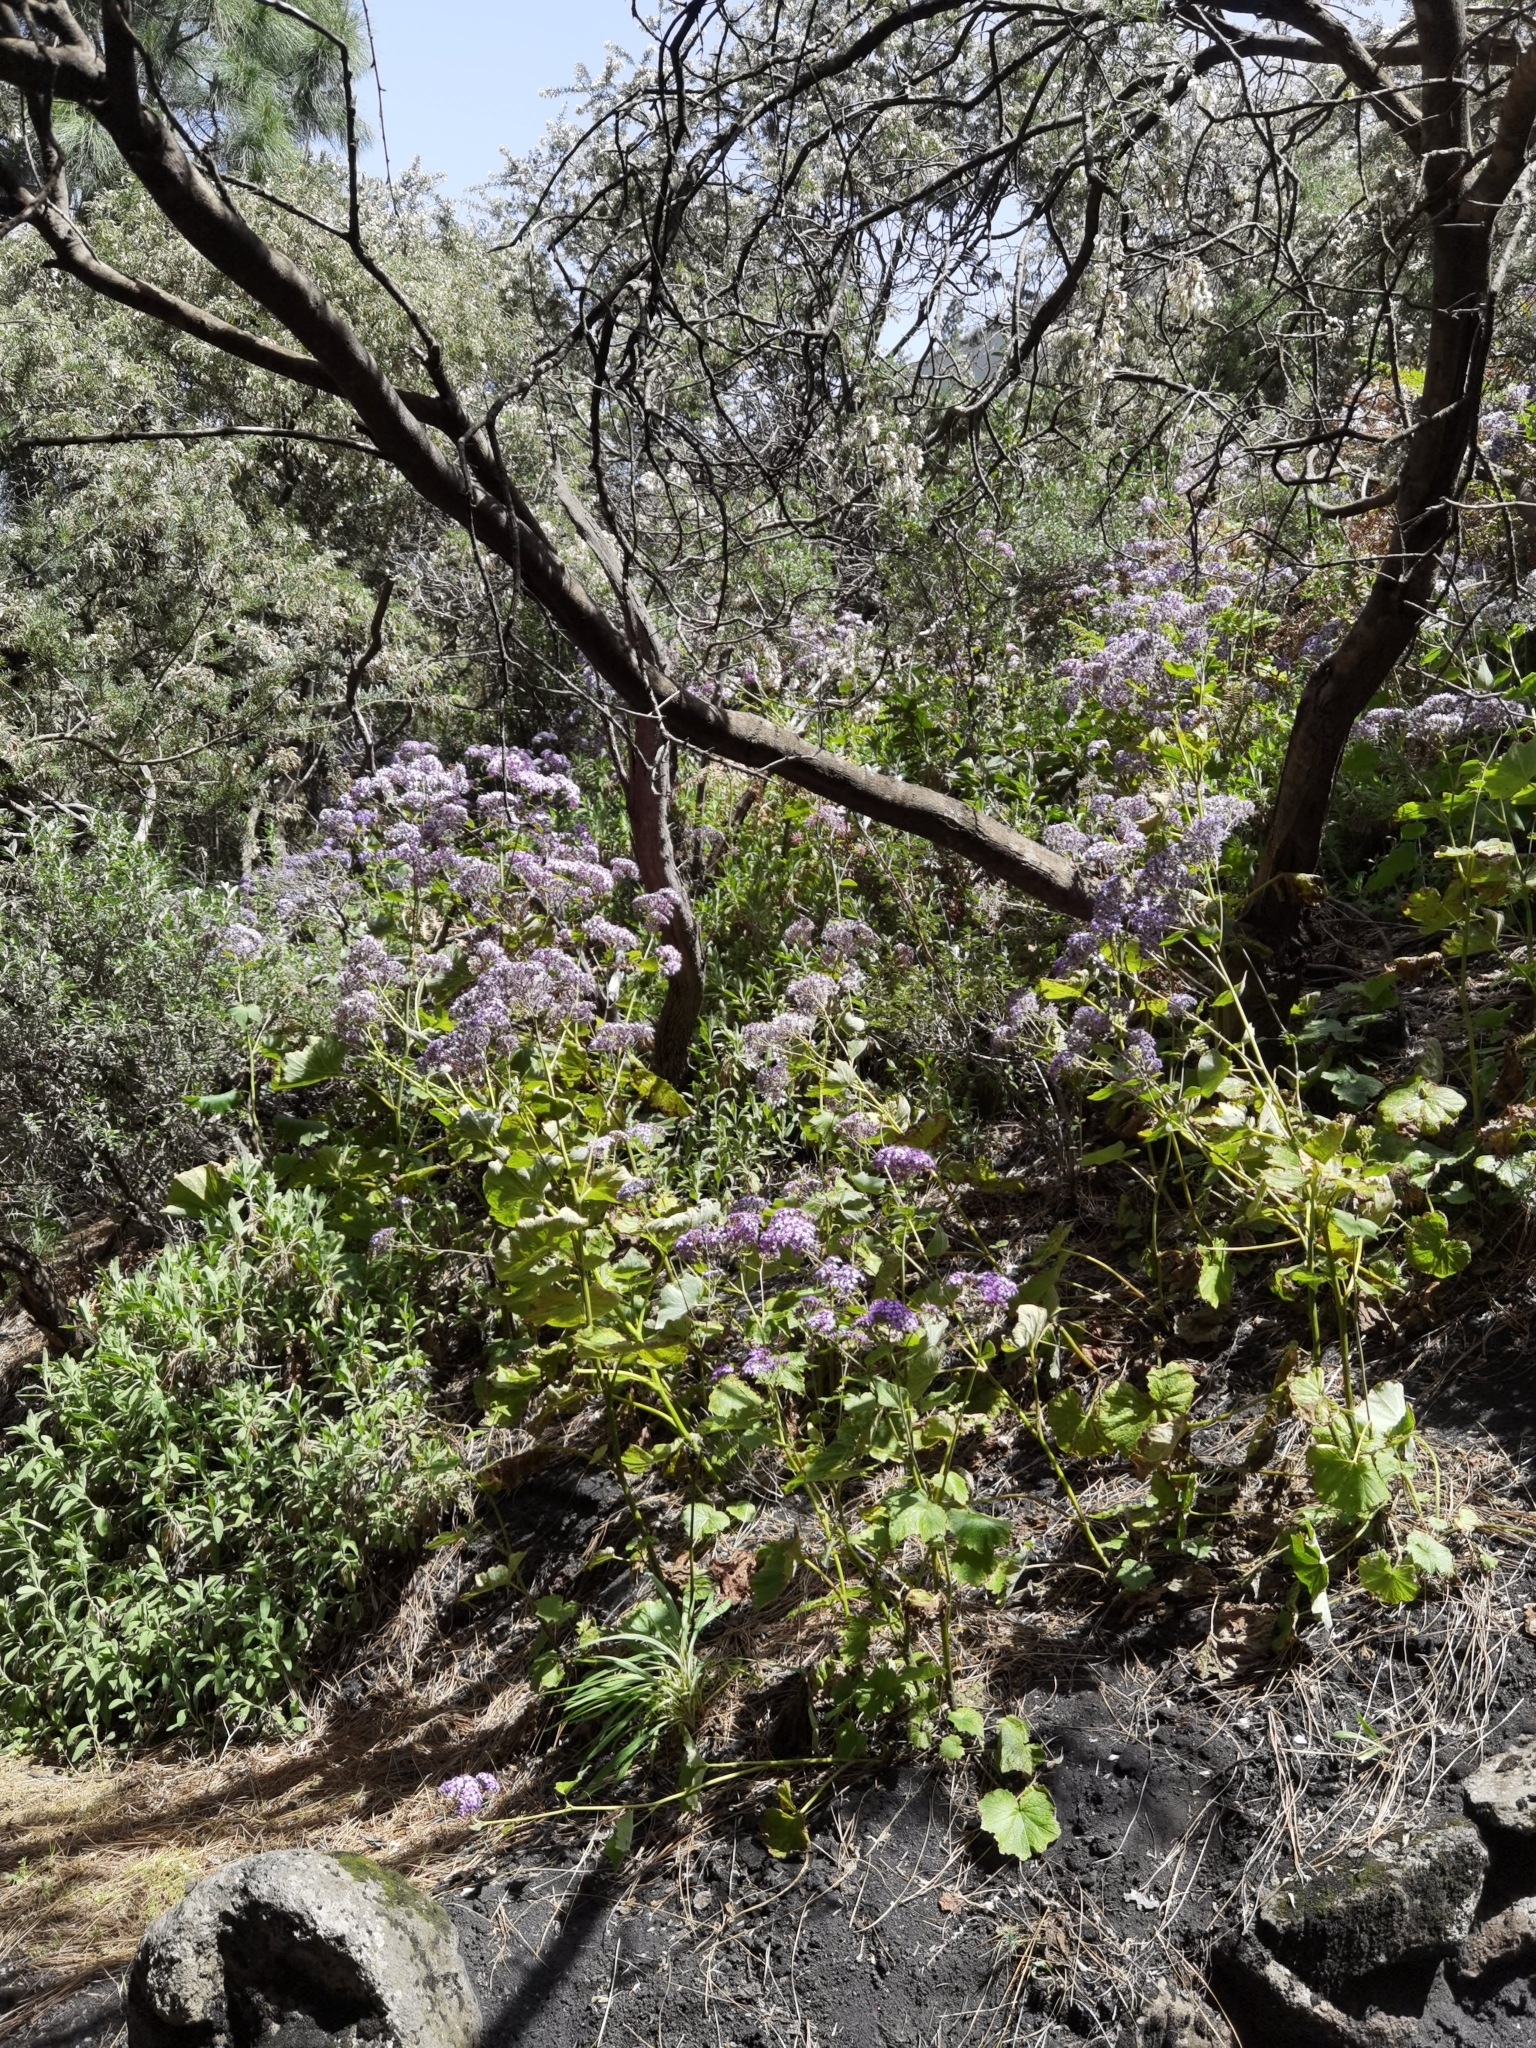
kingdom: Plantae
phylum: Tracheophyta
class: Magnoliopsida
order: Asterales
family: Asteraceae
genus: Pericallis
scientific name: Pericallis papyracea
